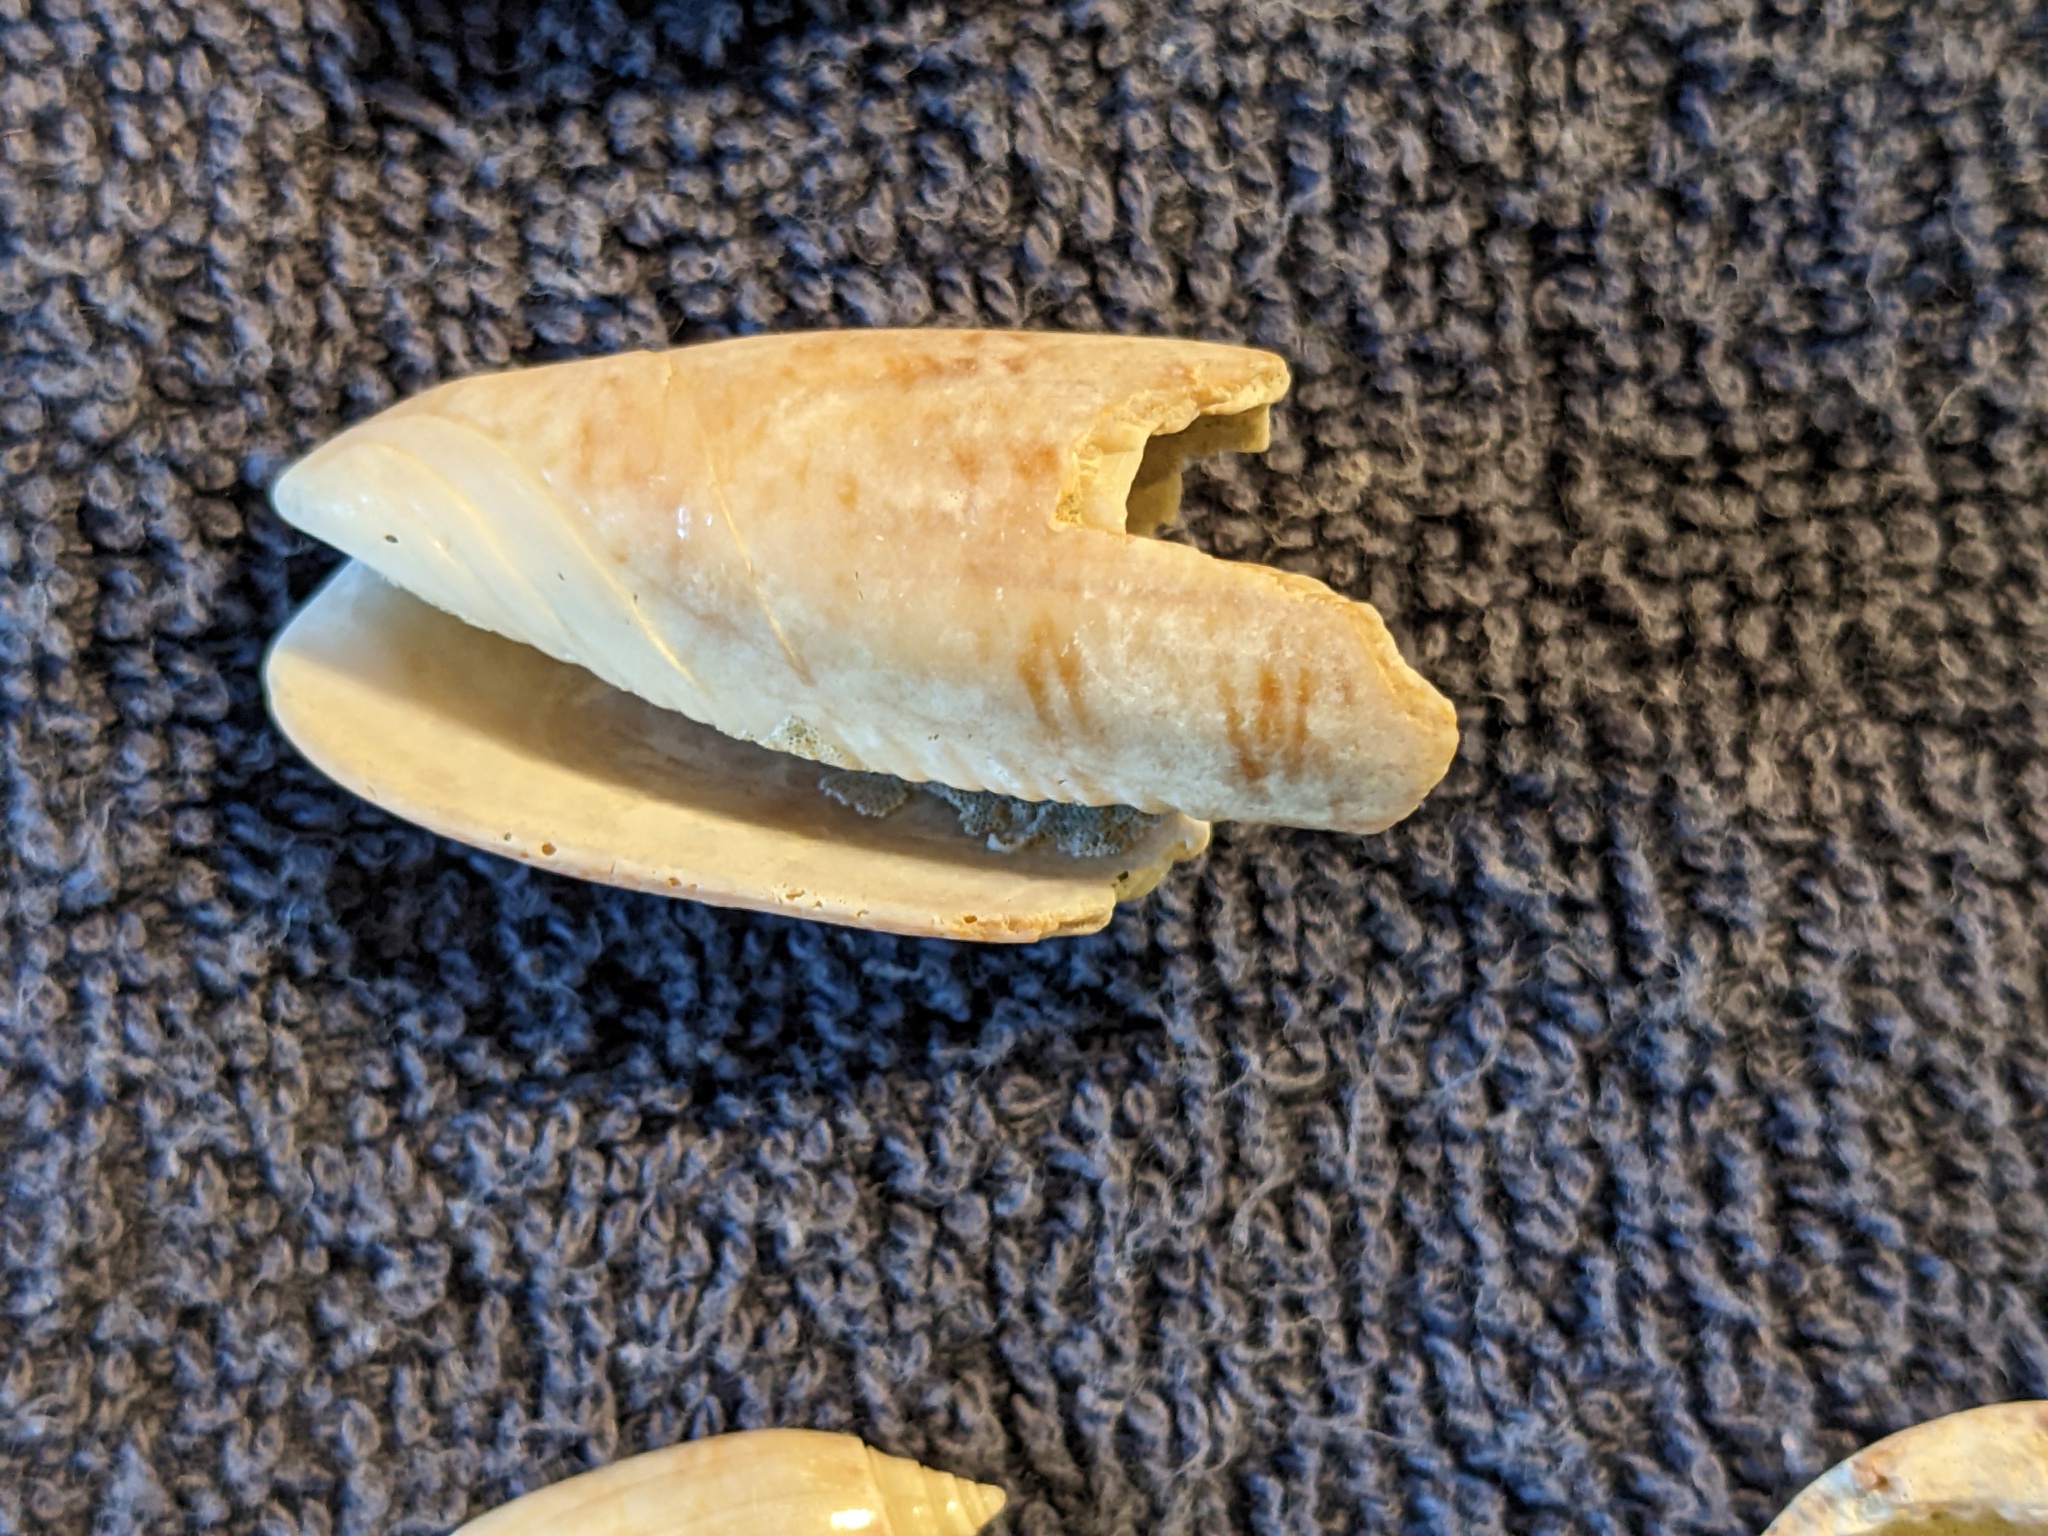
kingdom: Animalia
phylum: Mollusca
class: Gastropoda
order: Neogastropoda
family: Olividae
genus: Oliva
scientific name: Oliva sayana
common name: Lettered olive
